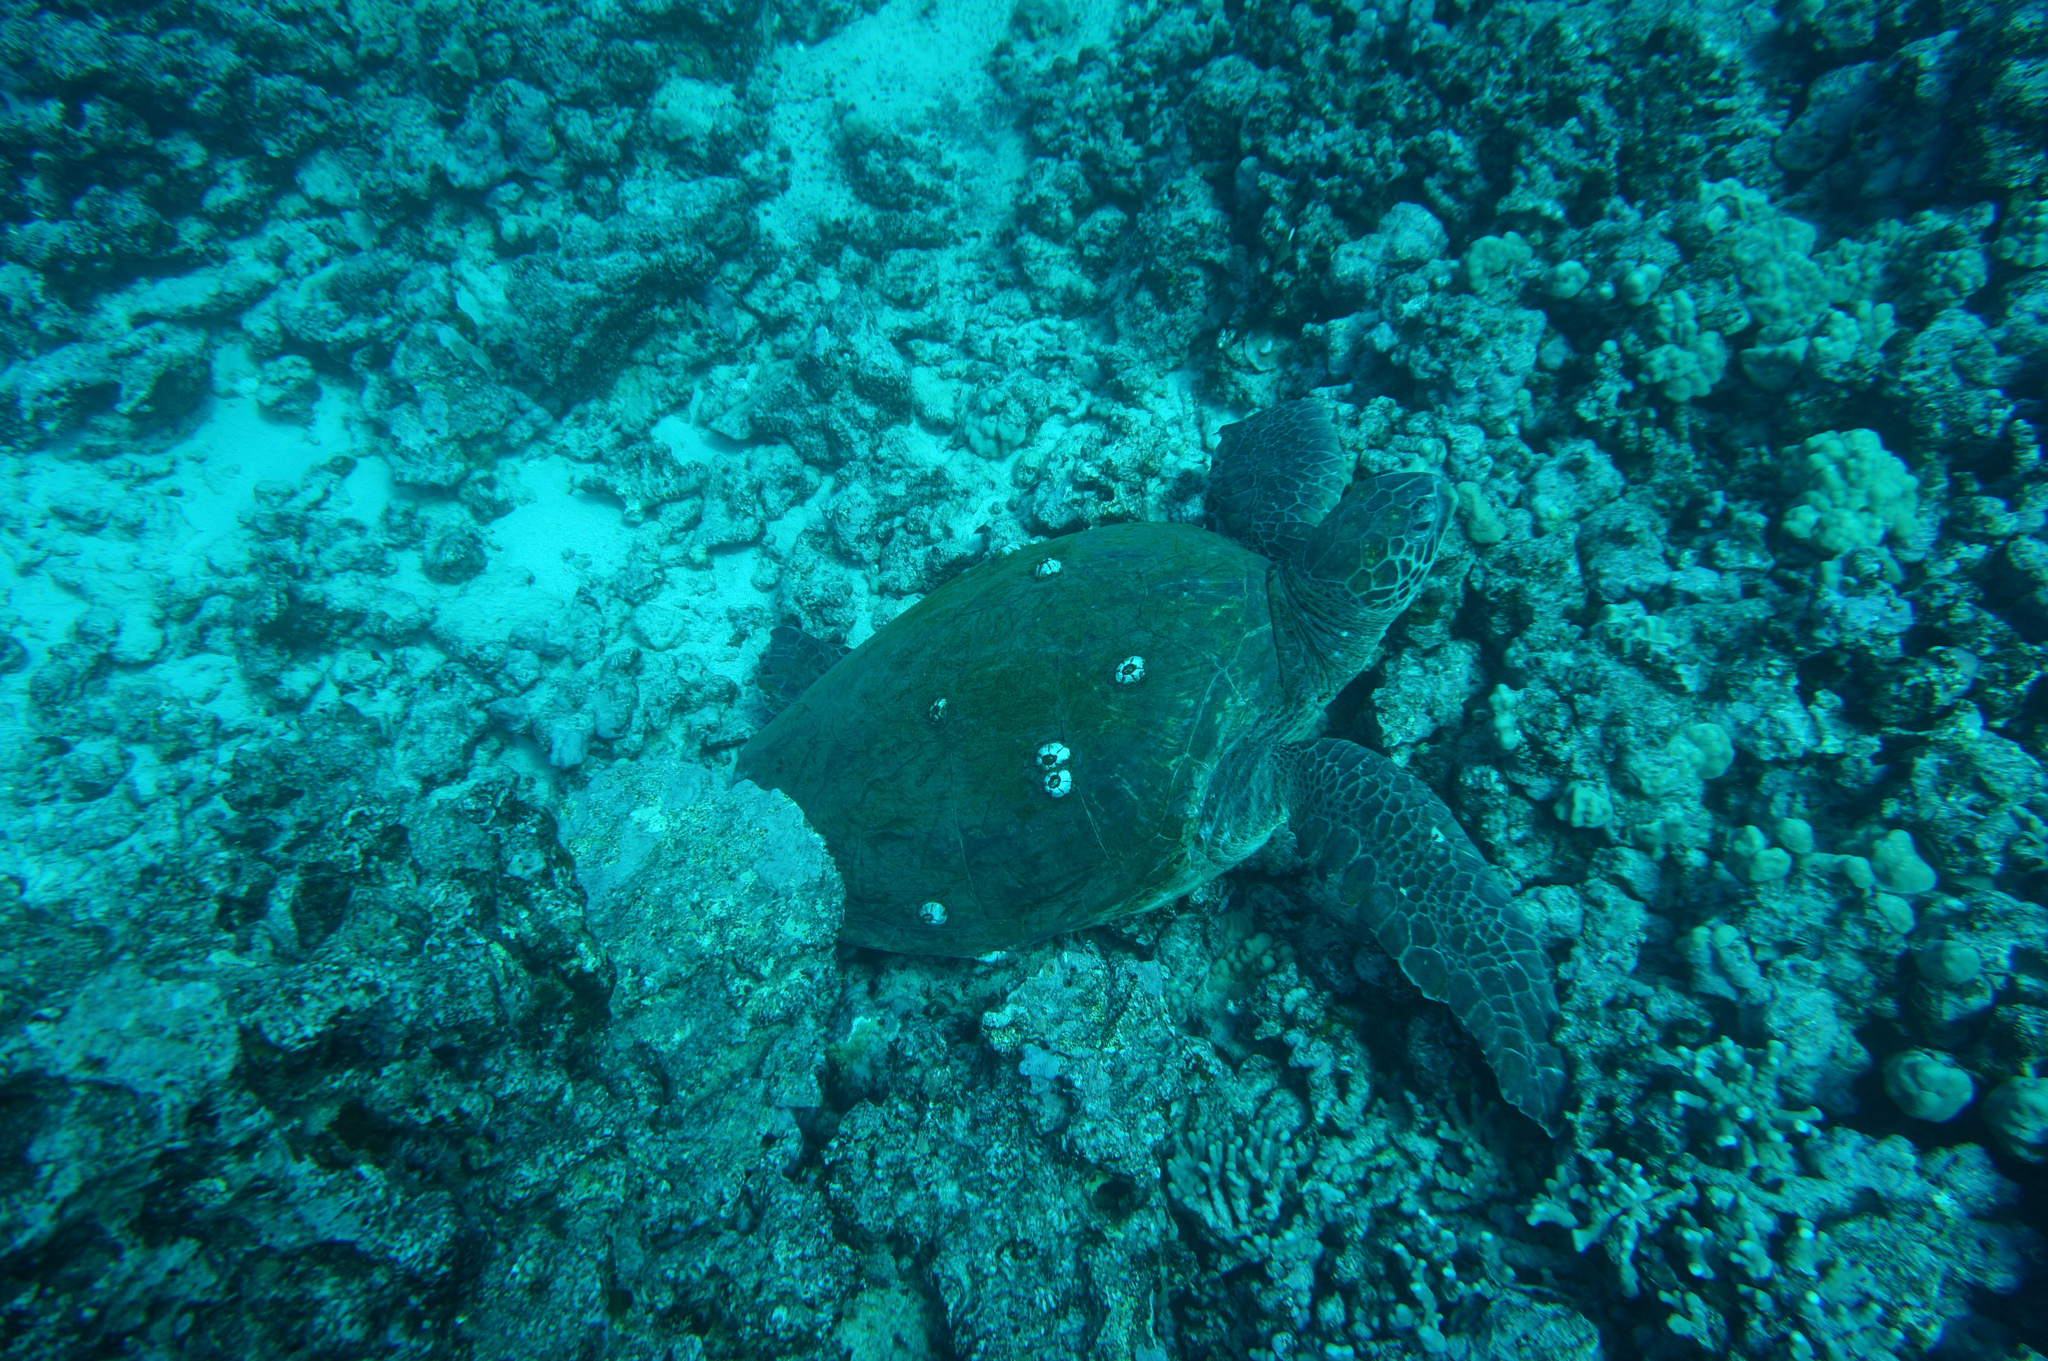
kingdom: Animalia
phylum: Chordata
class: Testudines
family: Cheloniidae
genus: Chelonia
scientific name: Chelonia mydas
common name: Green turtle
